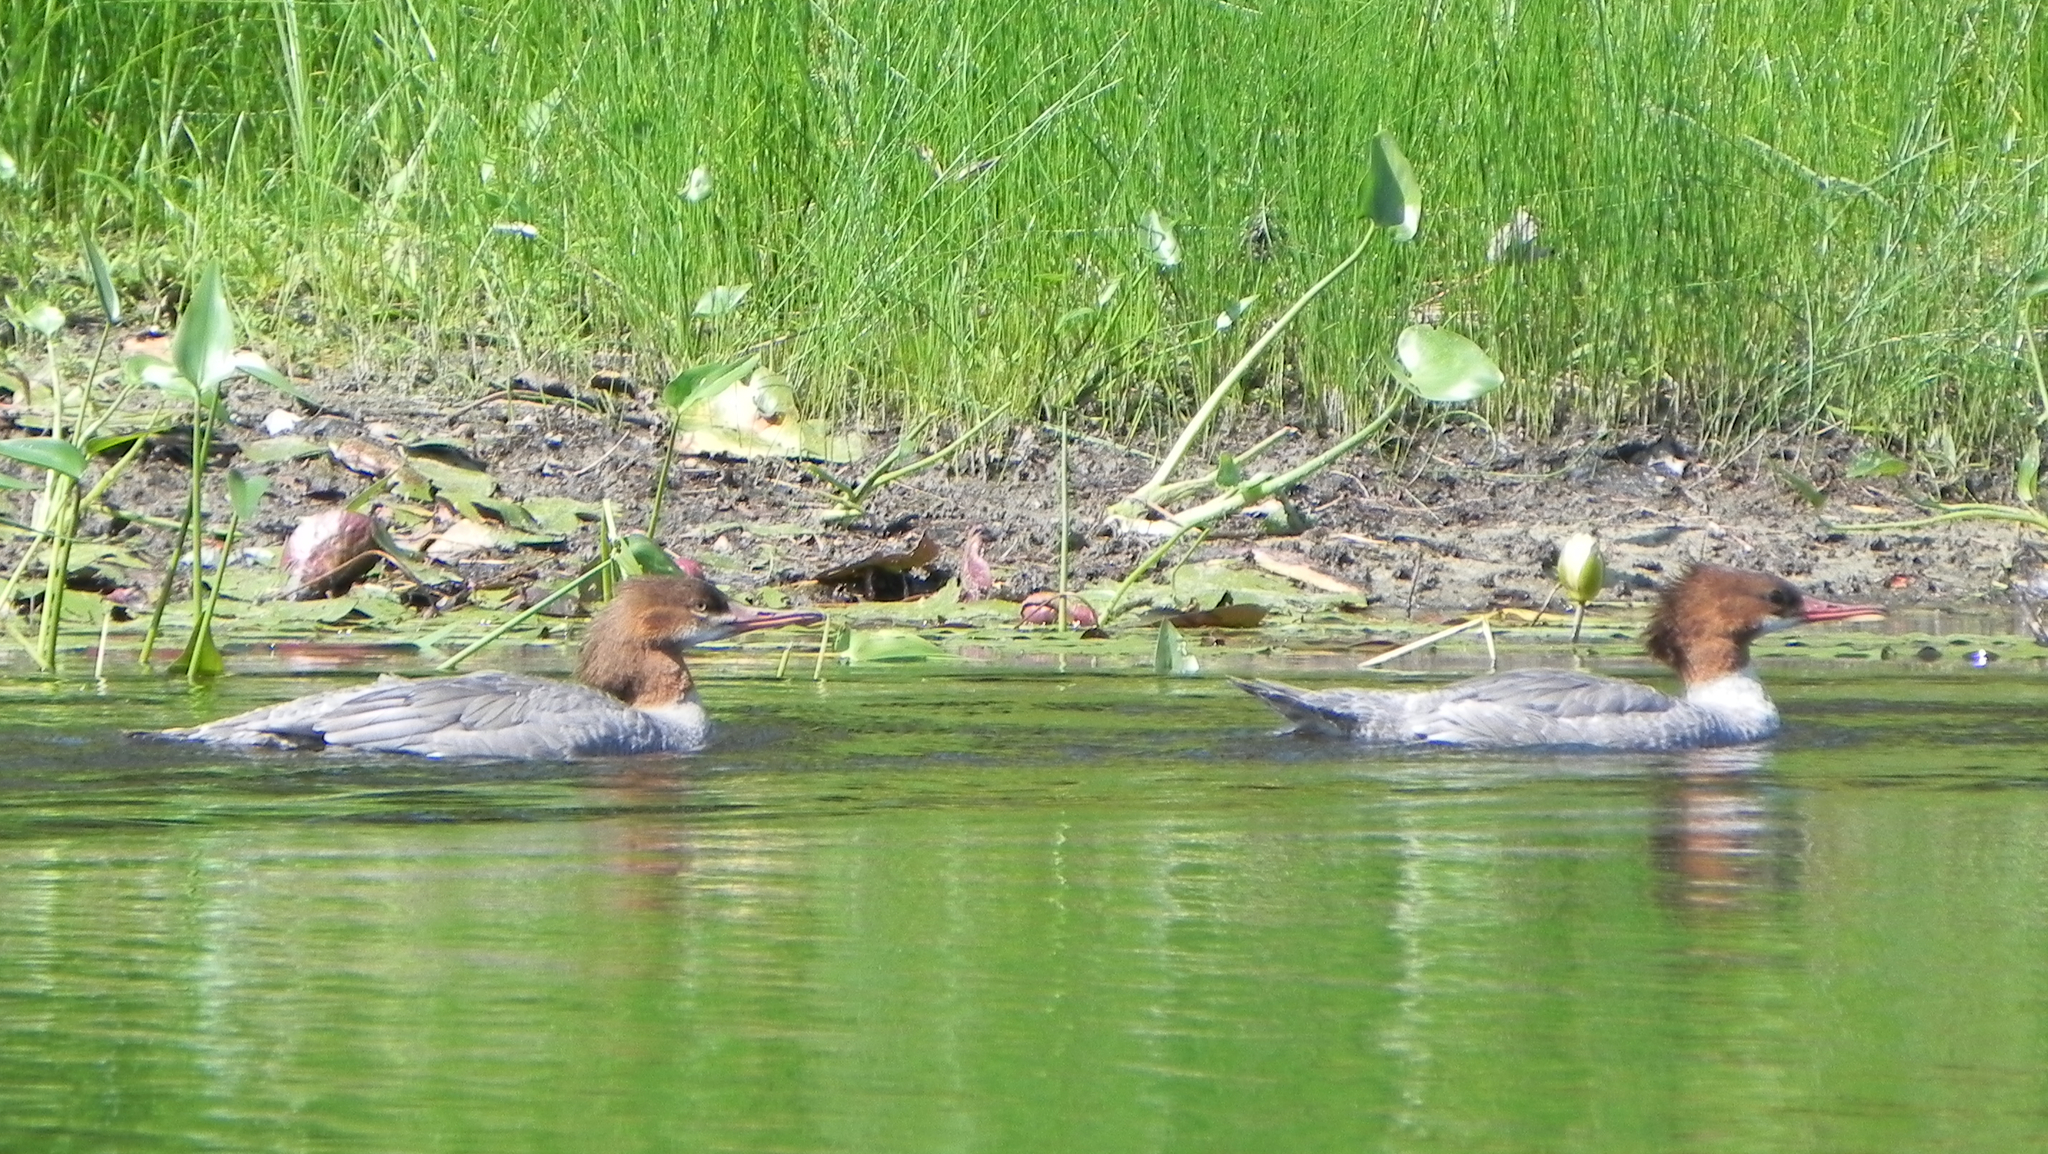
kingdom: Animalia
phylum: Chordata
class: Aves
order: Anseriformes
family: Anatidae
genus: Mergus
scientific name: Mergus merganser
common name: Common merganser
